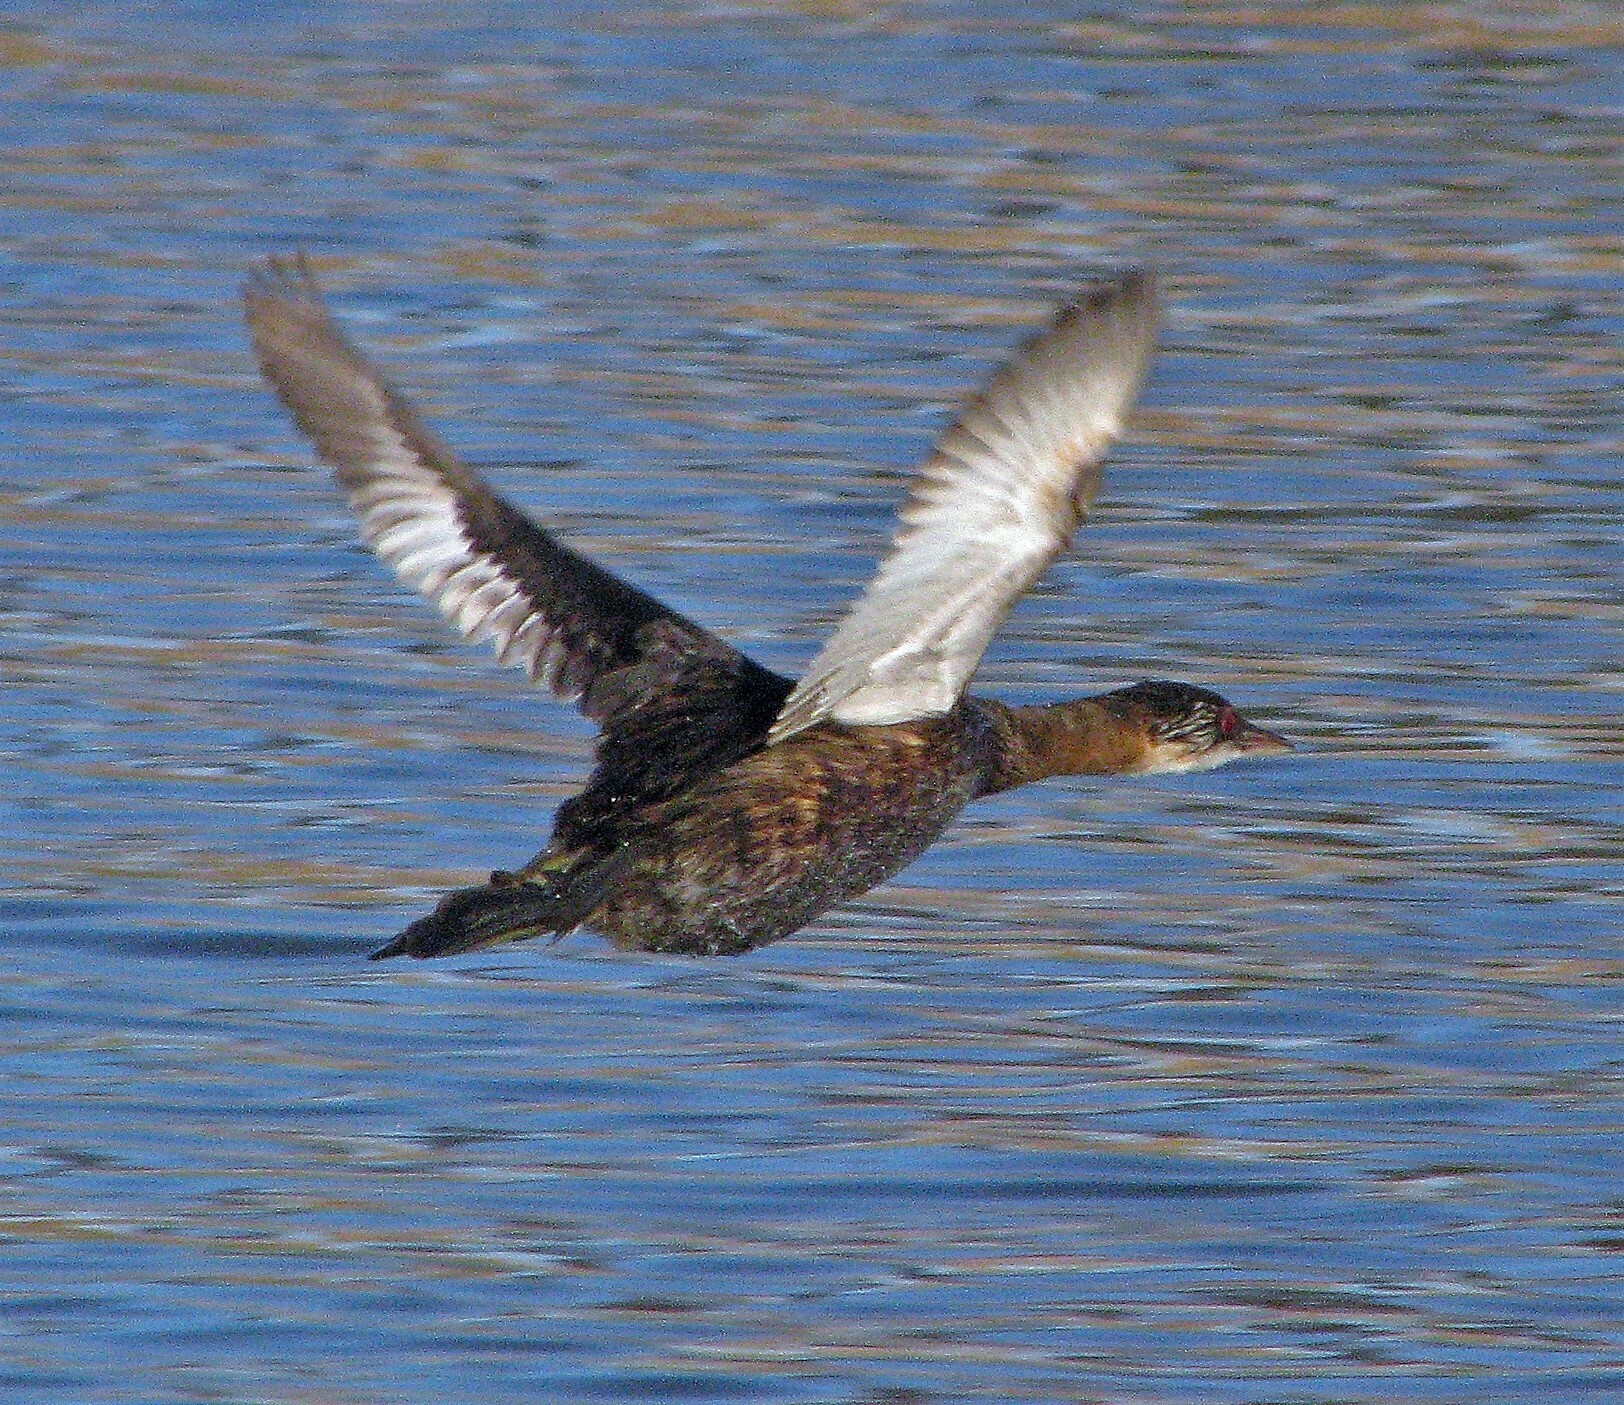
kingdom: Animalia
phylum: Chordata
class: Aves
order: Podicipediformes
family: Podicipedidae
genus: Rollandia
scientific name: Rollandia rolland
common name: White-tufted grebe
